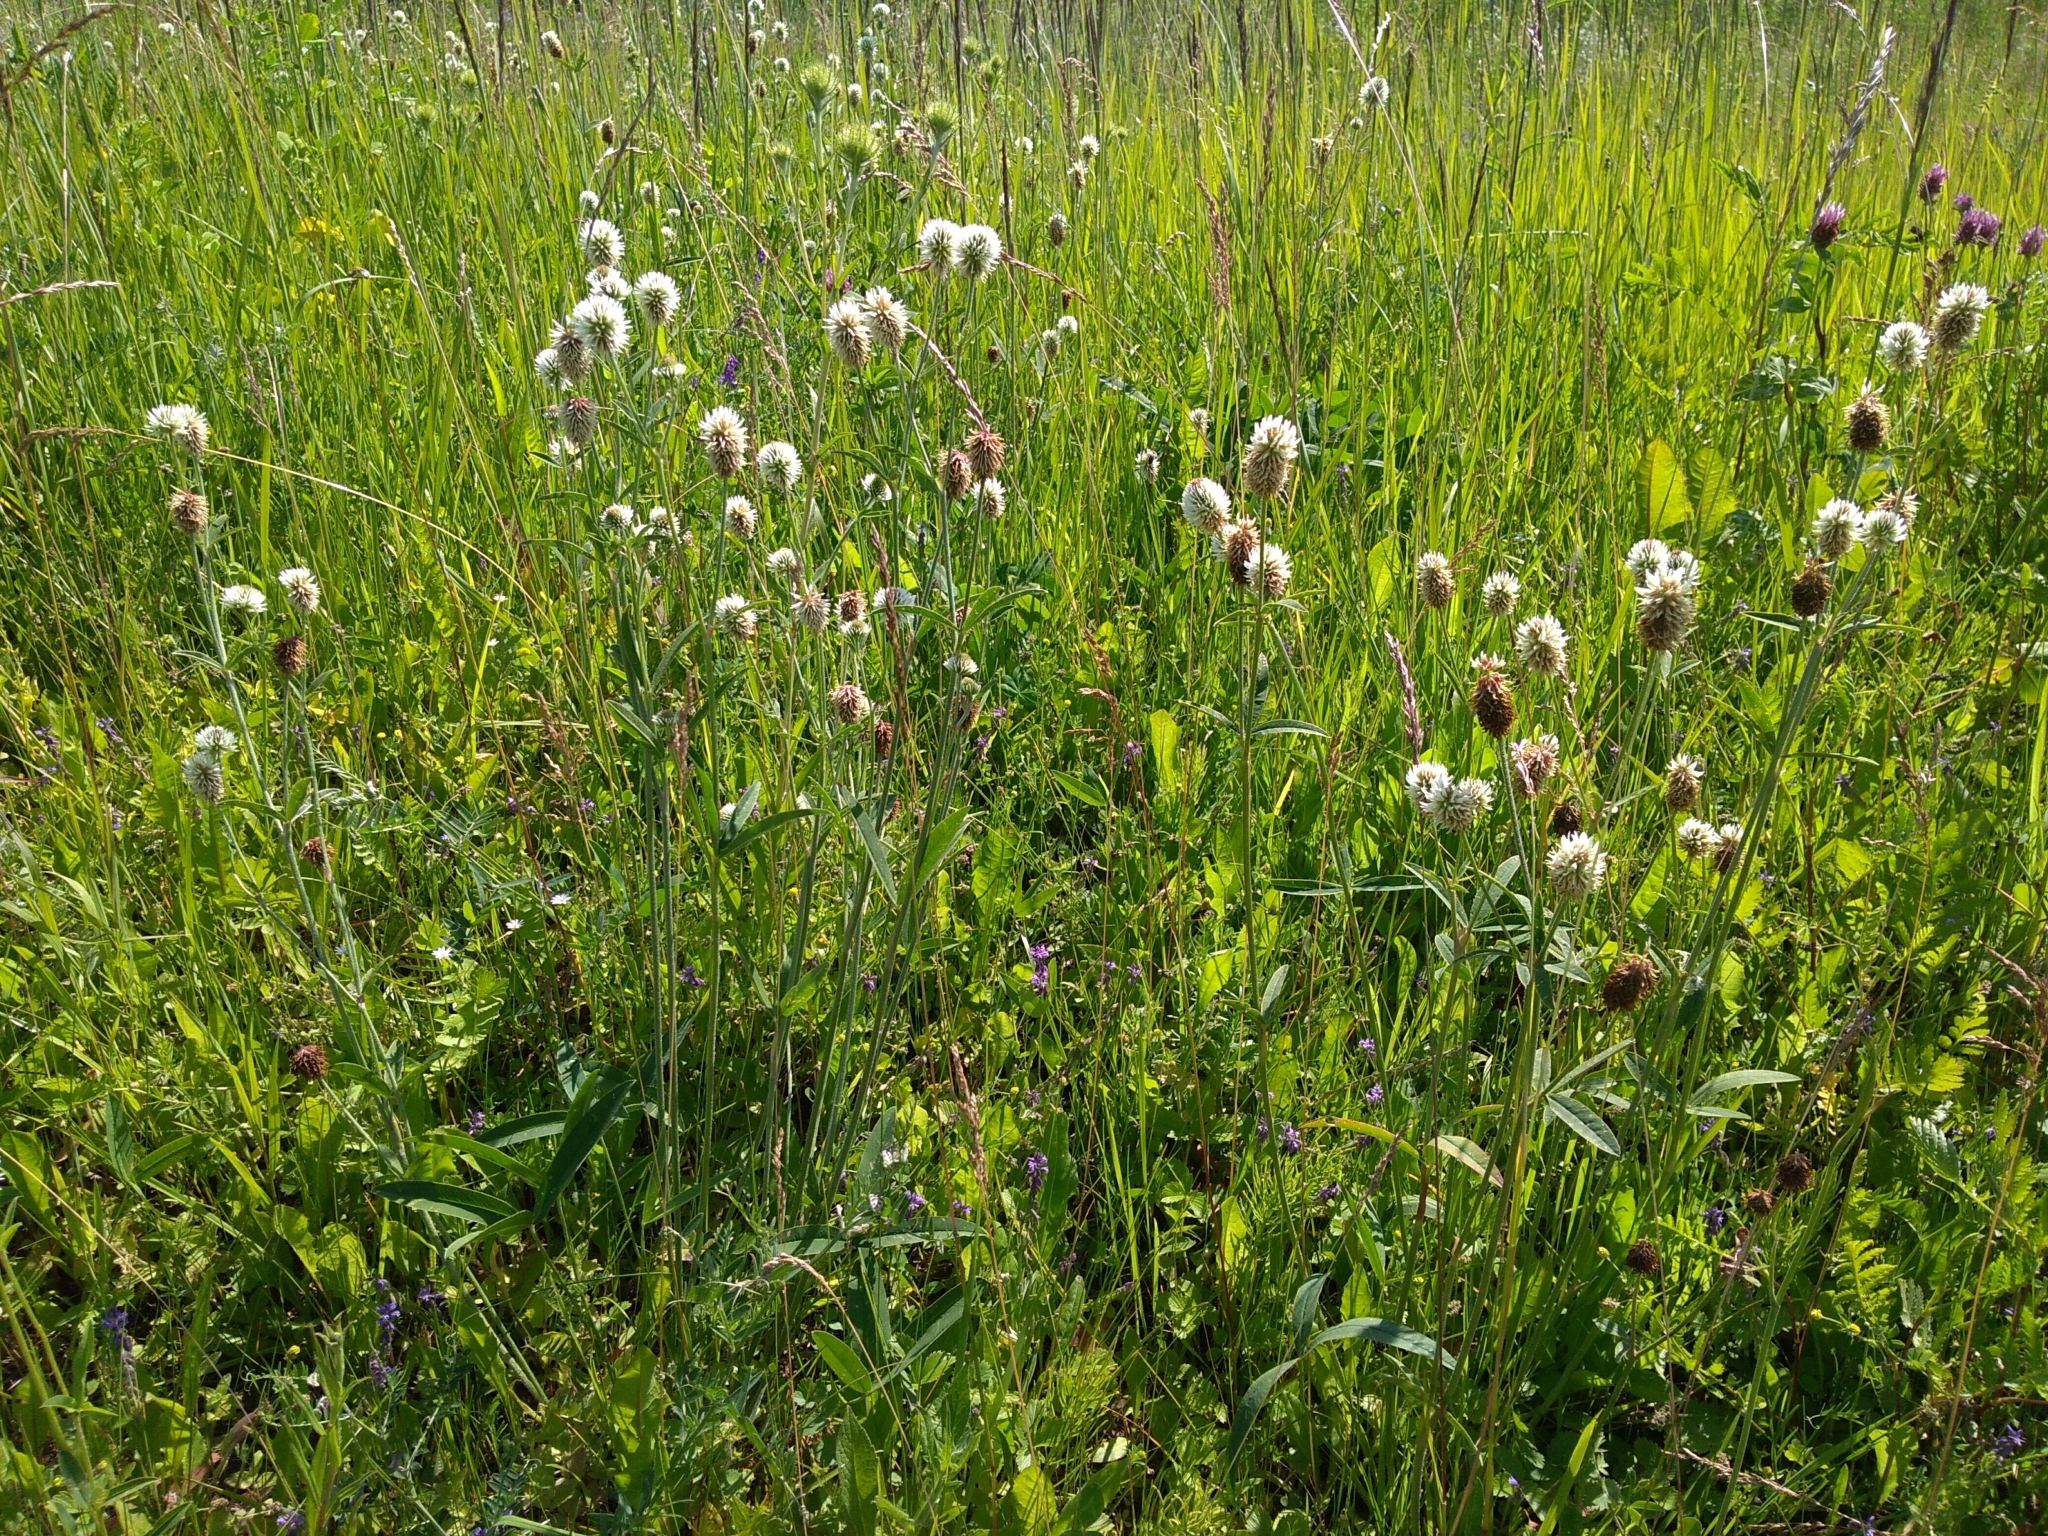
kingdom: Plantae
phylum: Tracheophyta
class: Magnoliopsida
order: Fabales
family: Fabaceae
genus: Trifolium
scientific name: Trifolium montanum
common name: Mountain clover
